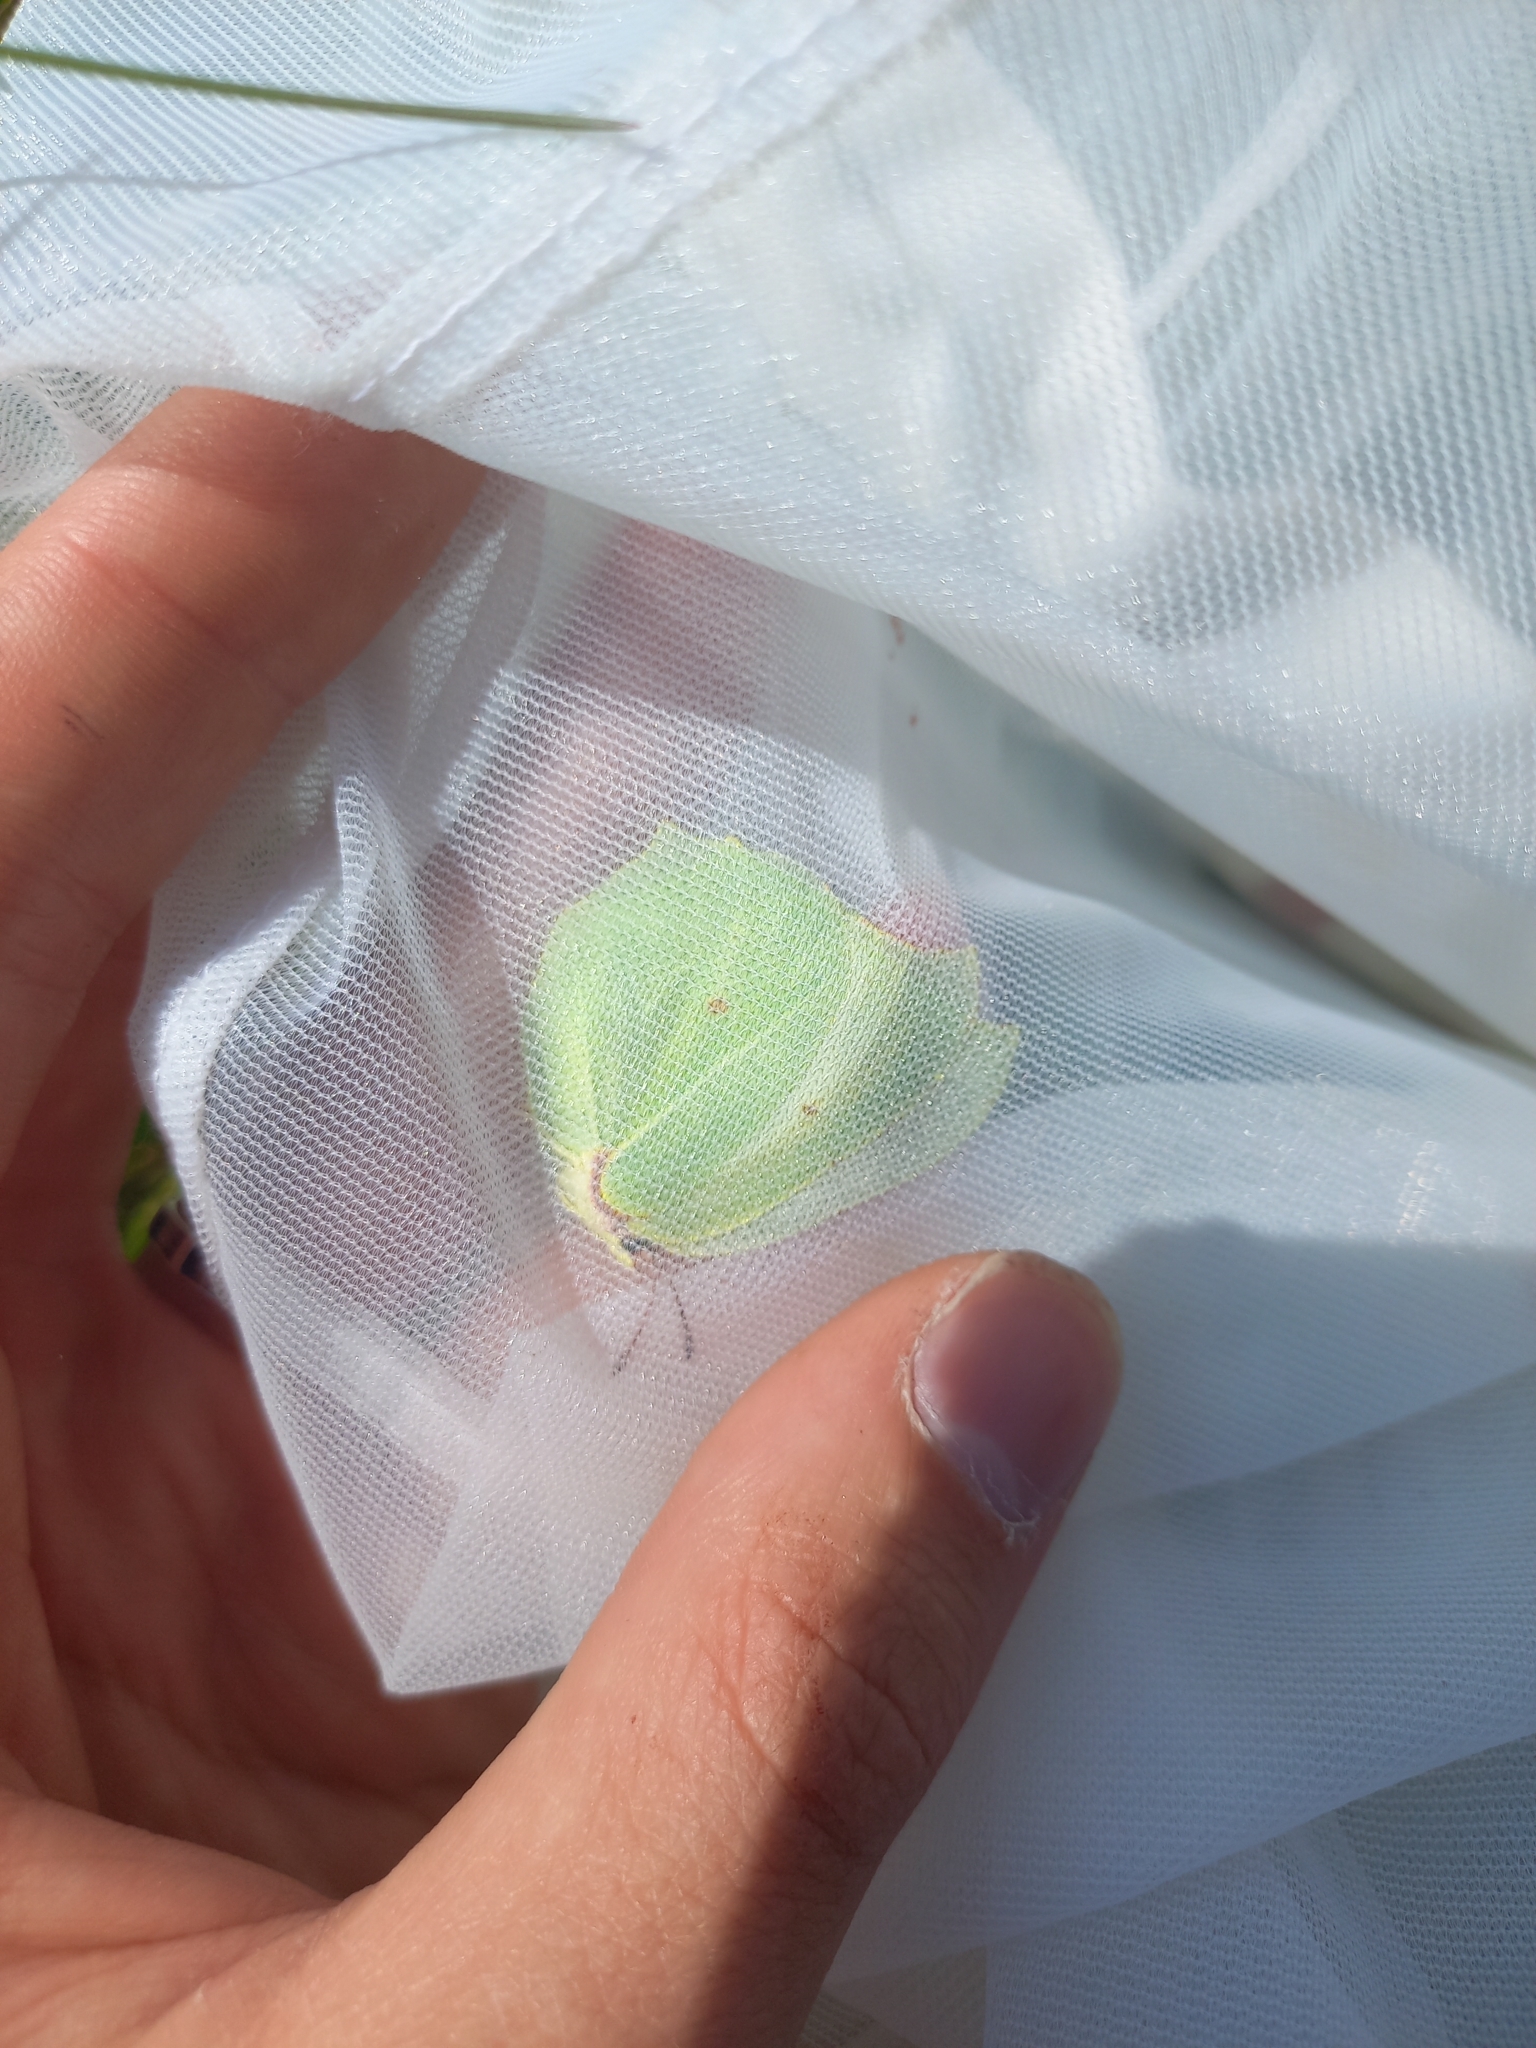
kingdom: Animalia
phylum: Arthropoda
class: Insecta
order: Lepidoptera
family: Pieridae
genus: Gonepteryx
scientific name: Gonepteryx rhamni
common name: Brimstone
